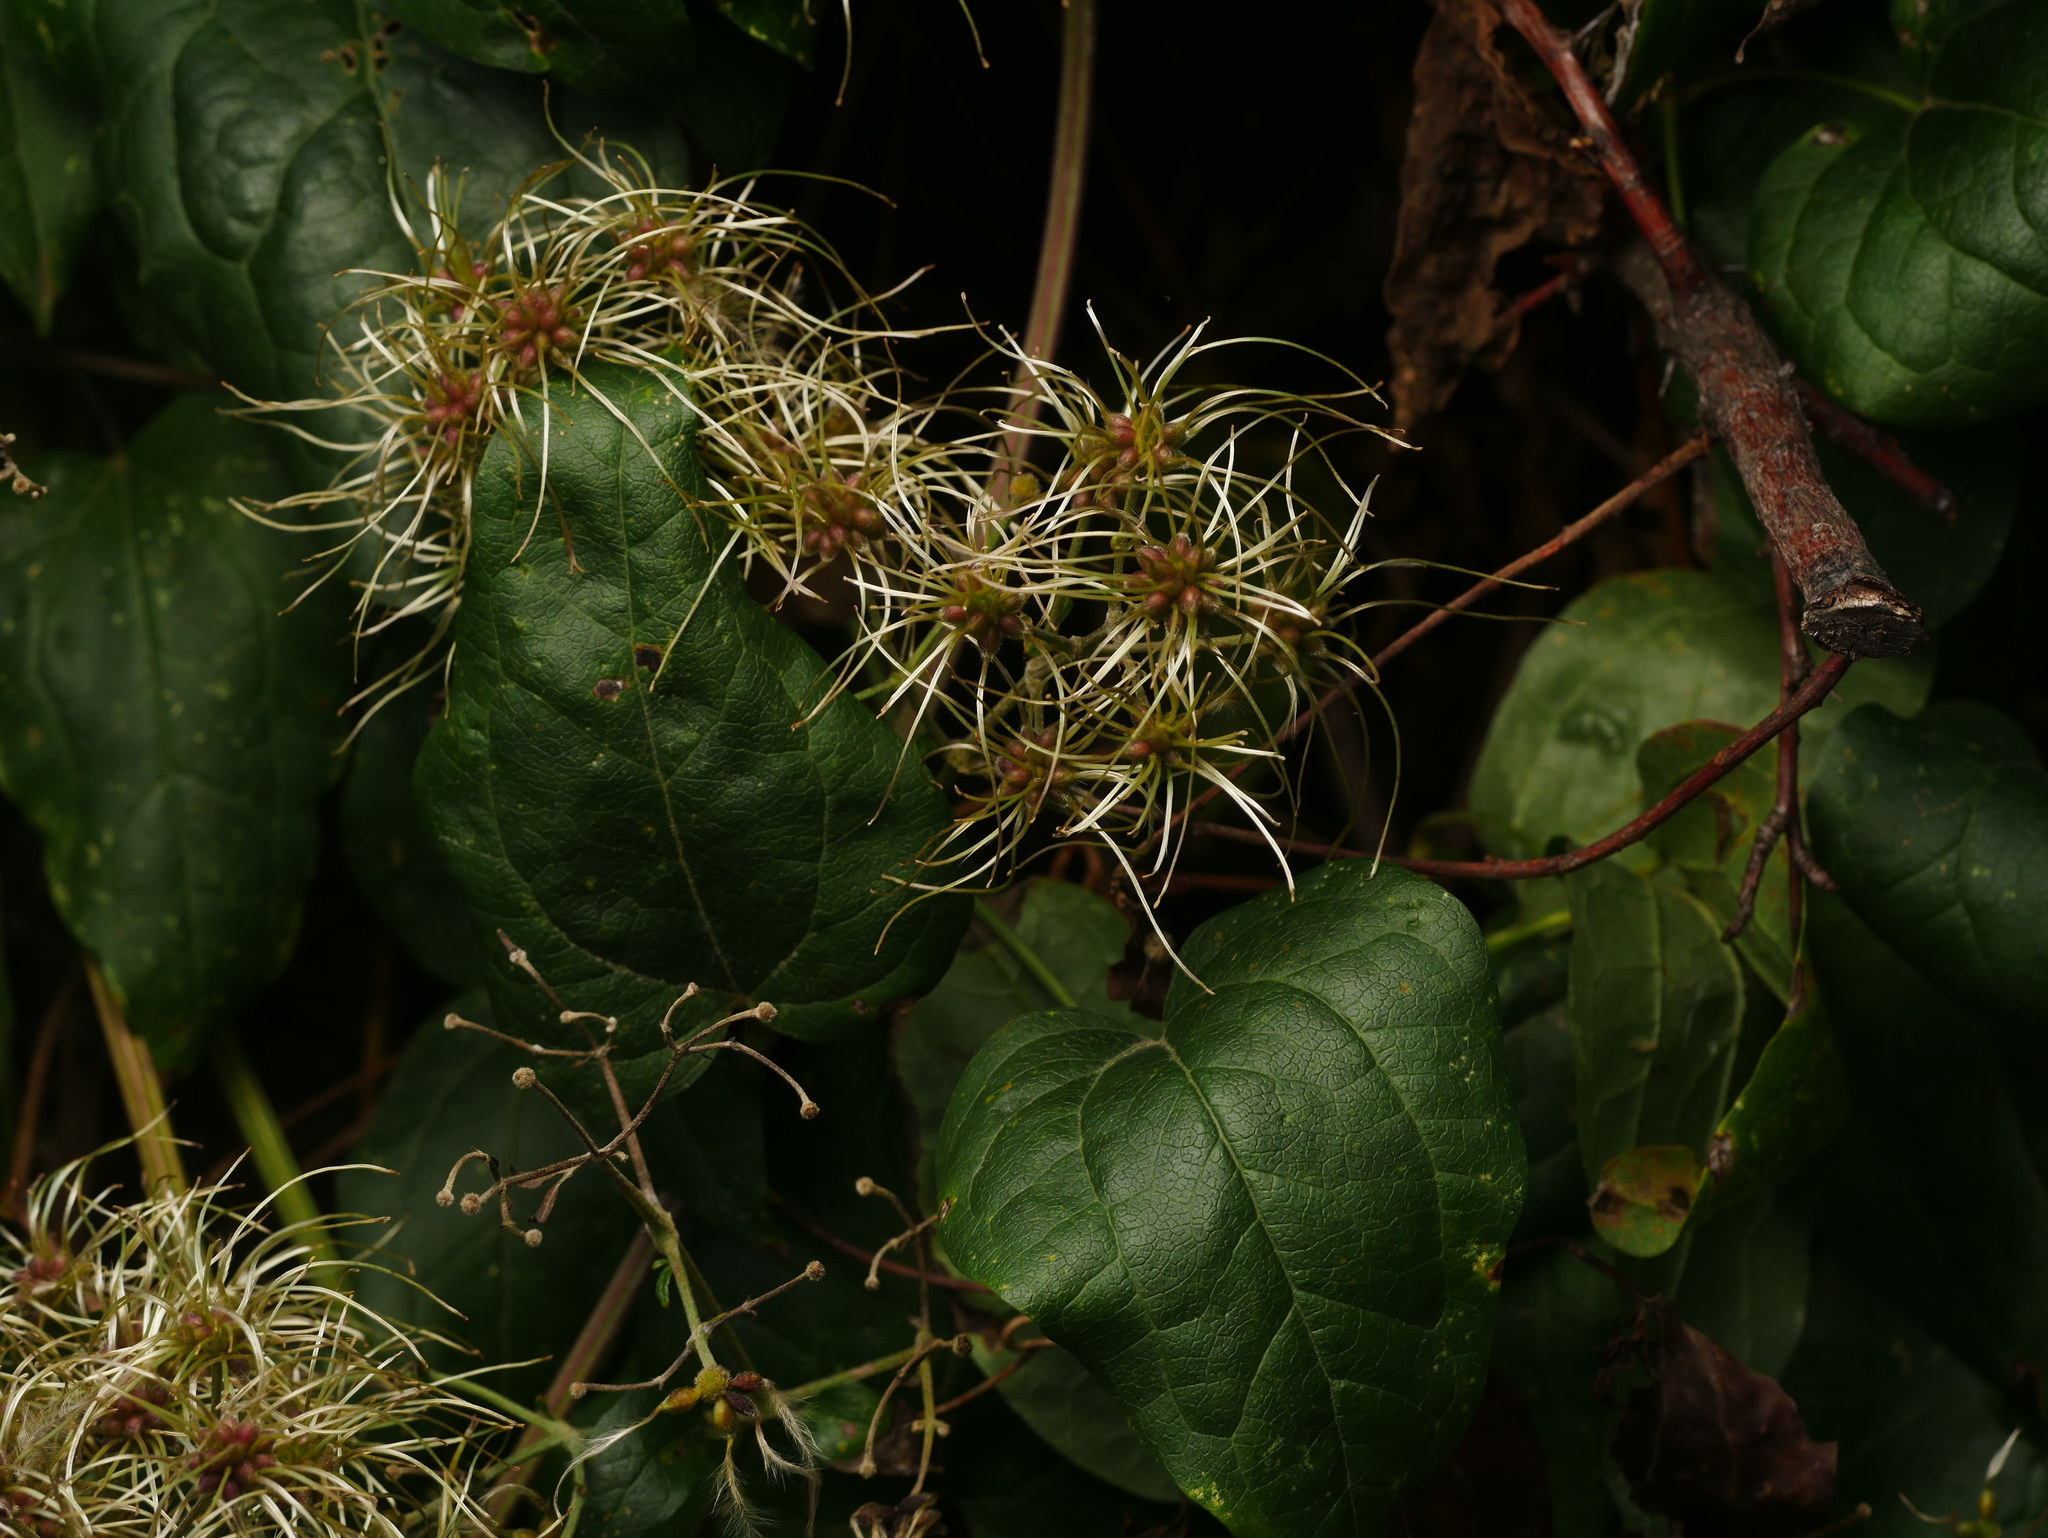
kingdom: Plantae
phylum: Tracheophyta
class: Magnoliopsida
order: Ranunculales
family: Ranunculaceae
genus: Clematis
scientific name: Clematis vitalba
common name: Evergreen clematis
